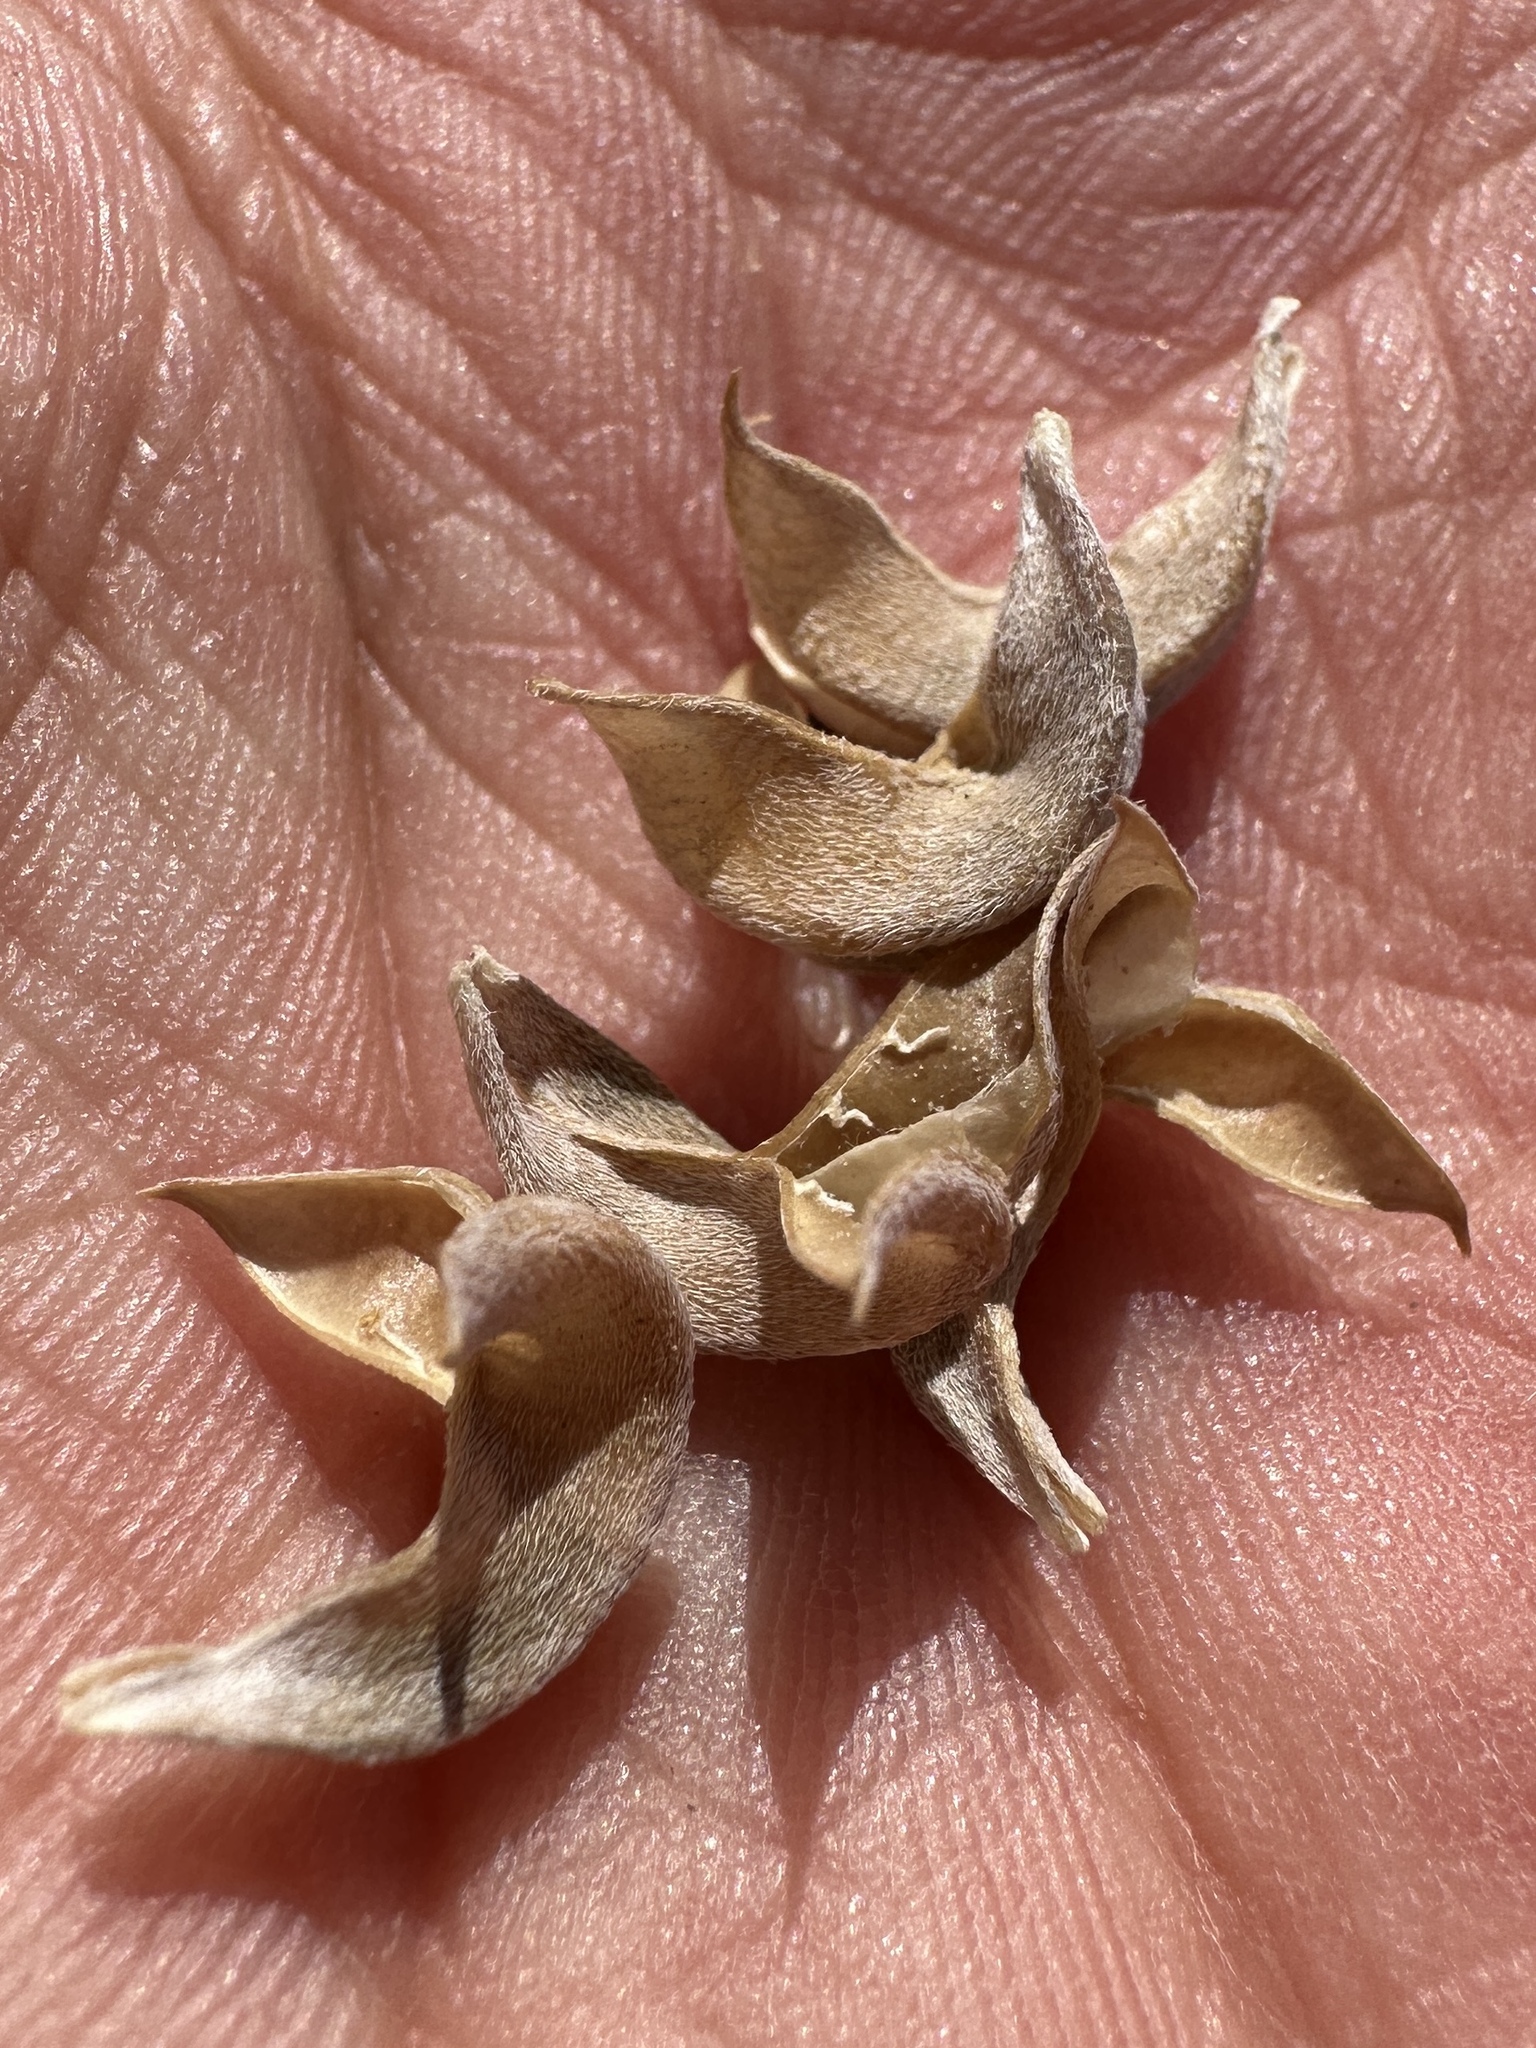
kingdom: Plantae
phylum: Tracheophyta
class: Magnoliopsida
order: Fabales
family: Fabaceae
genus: Astragalus
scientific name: Astragalus albens
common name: Cushenbury milk-vetch
